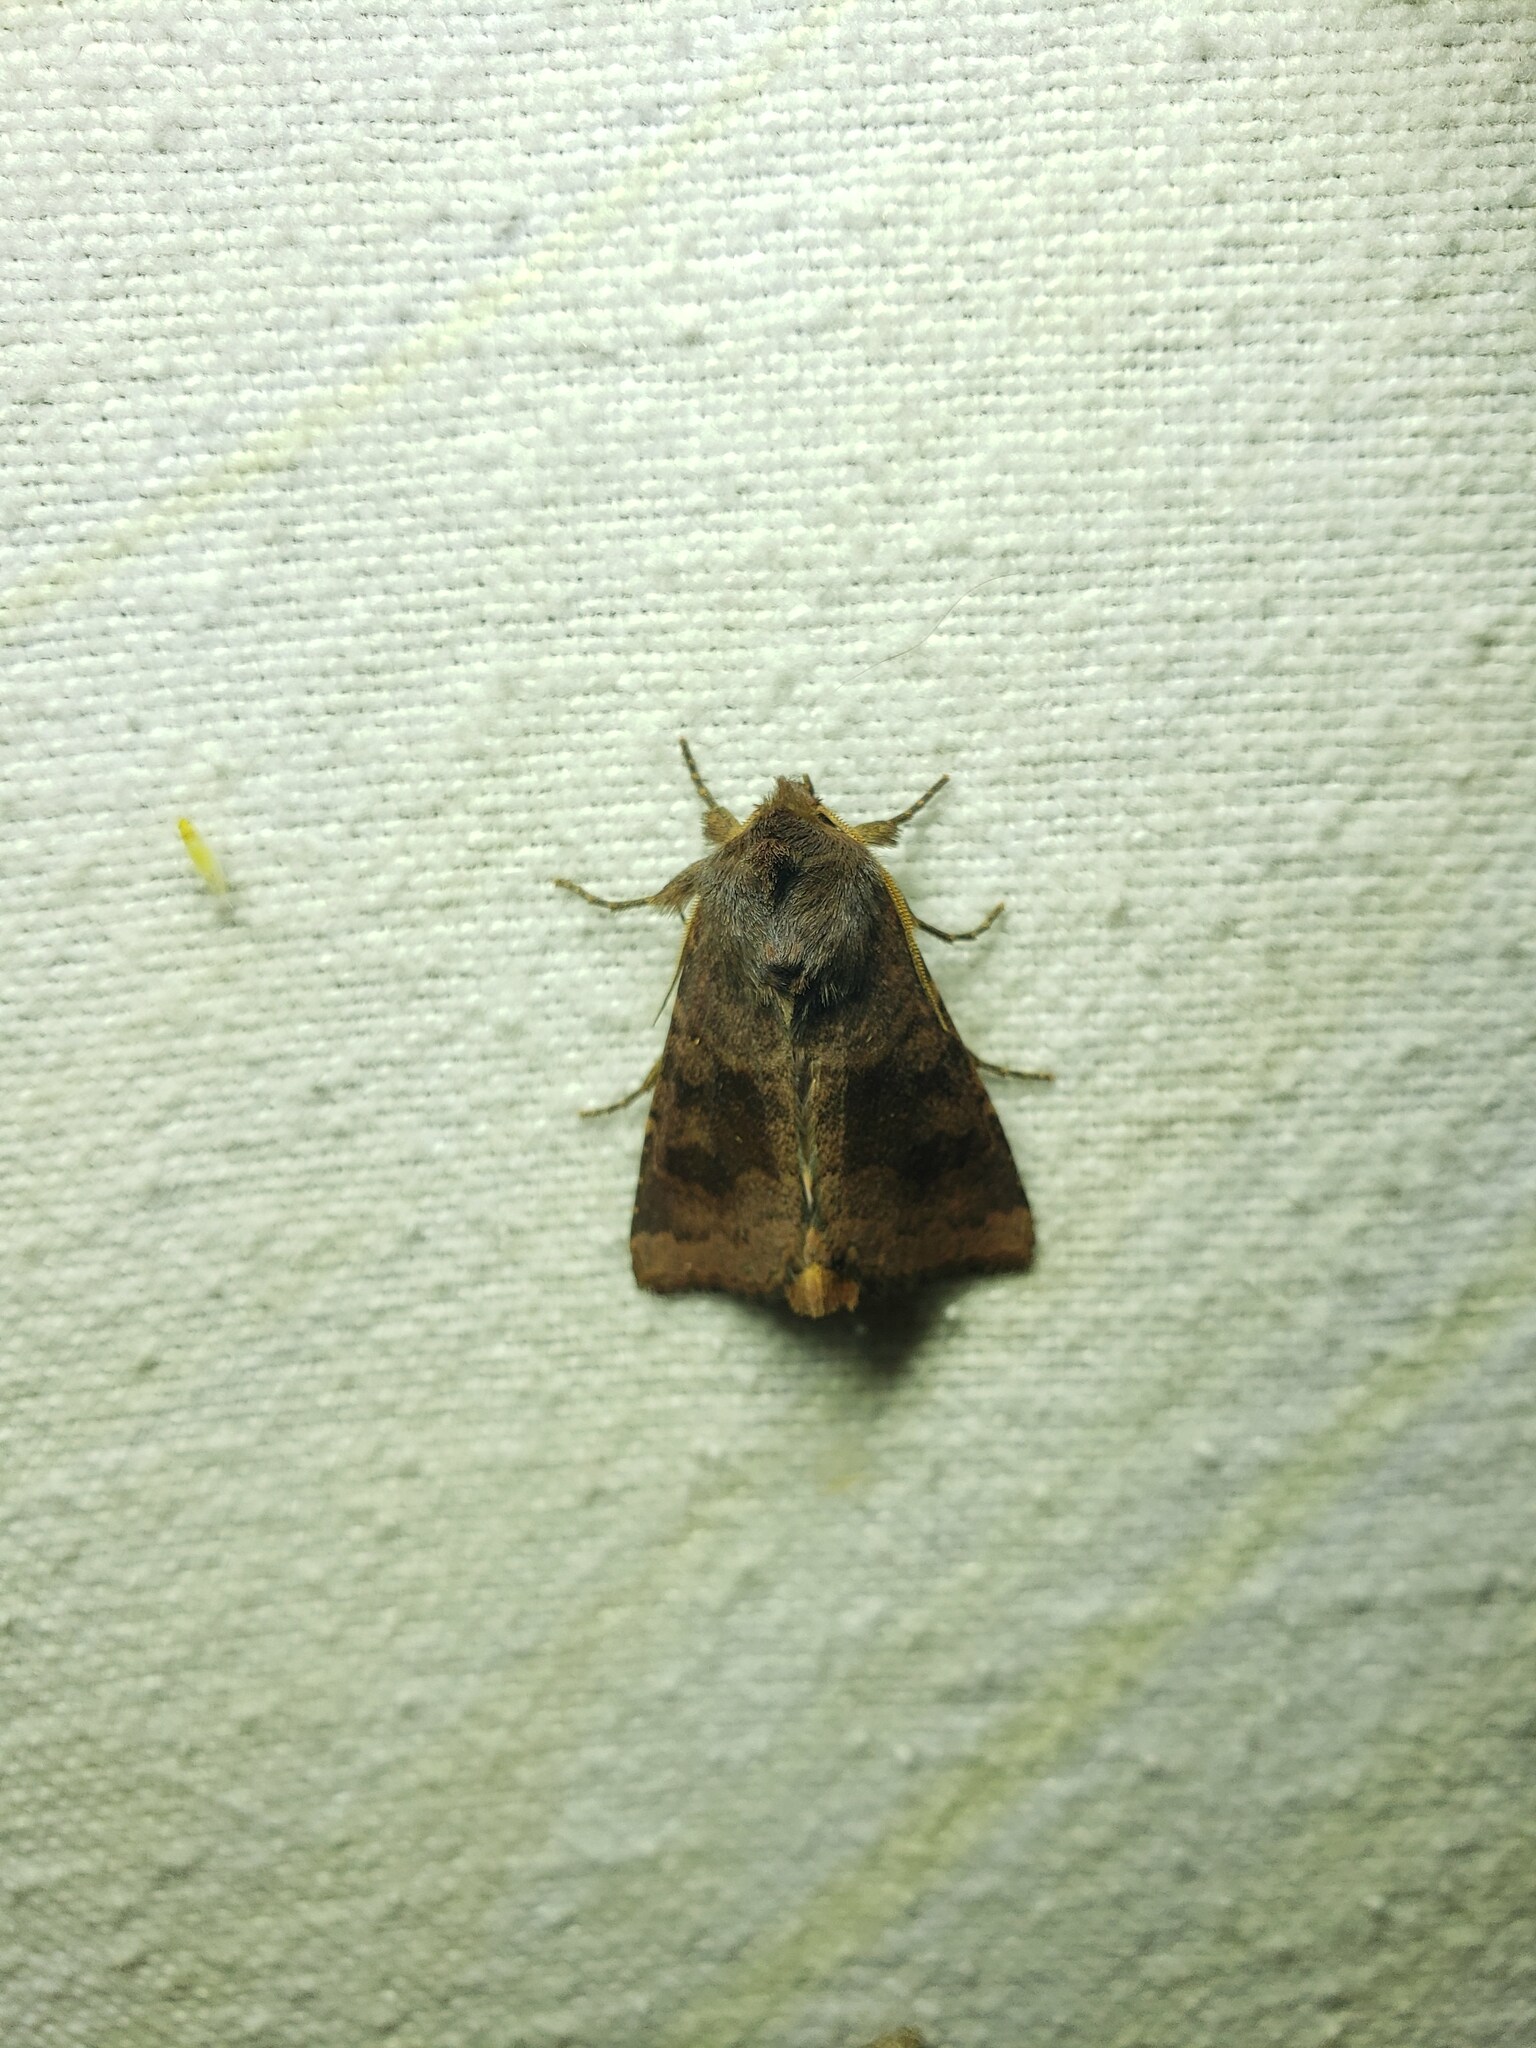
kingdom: Animalia
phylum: Arthropoda
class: Insecta
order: Lepidoptera
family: Noctuidae
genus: Nephelodes
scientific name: Nephelodes minians
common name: Bronzed cutworm
